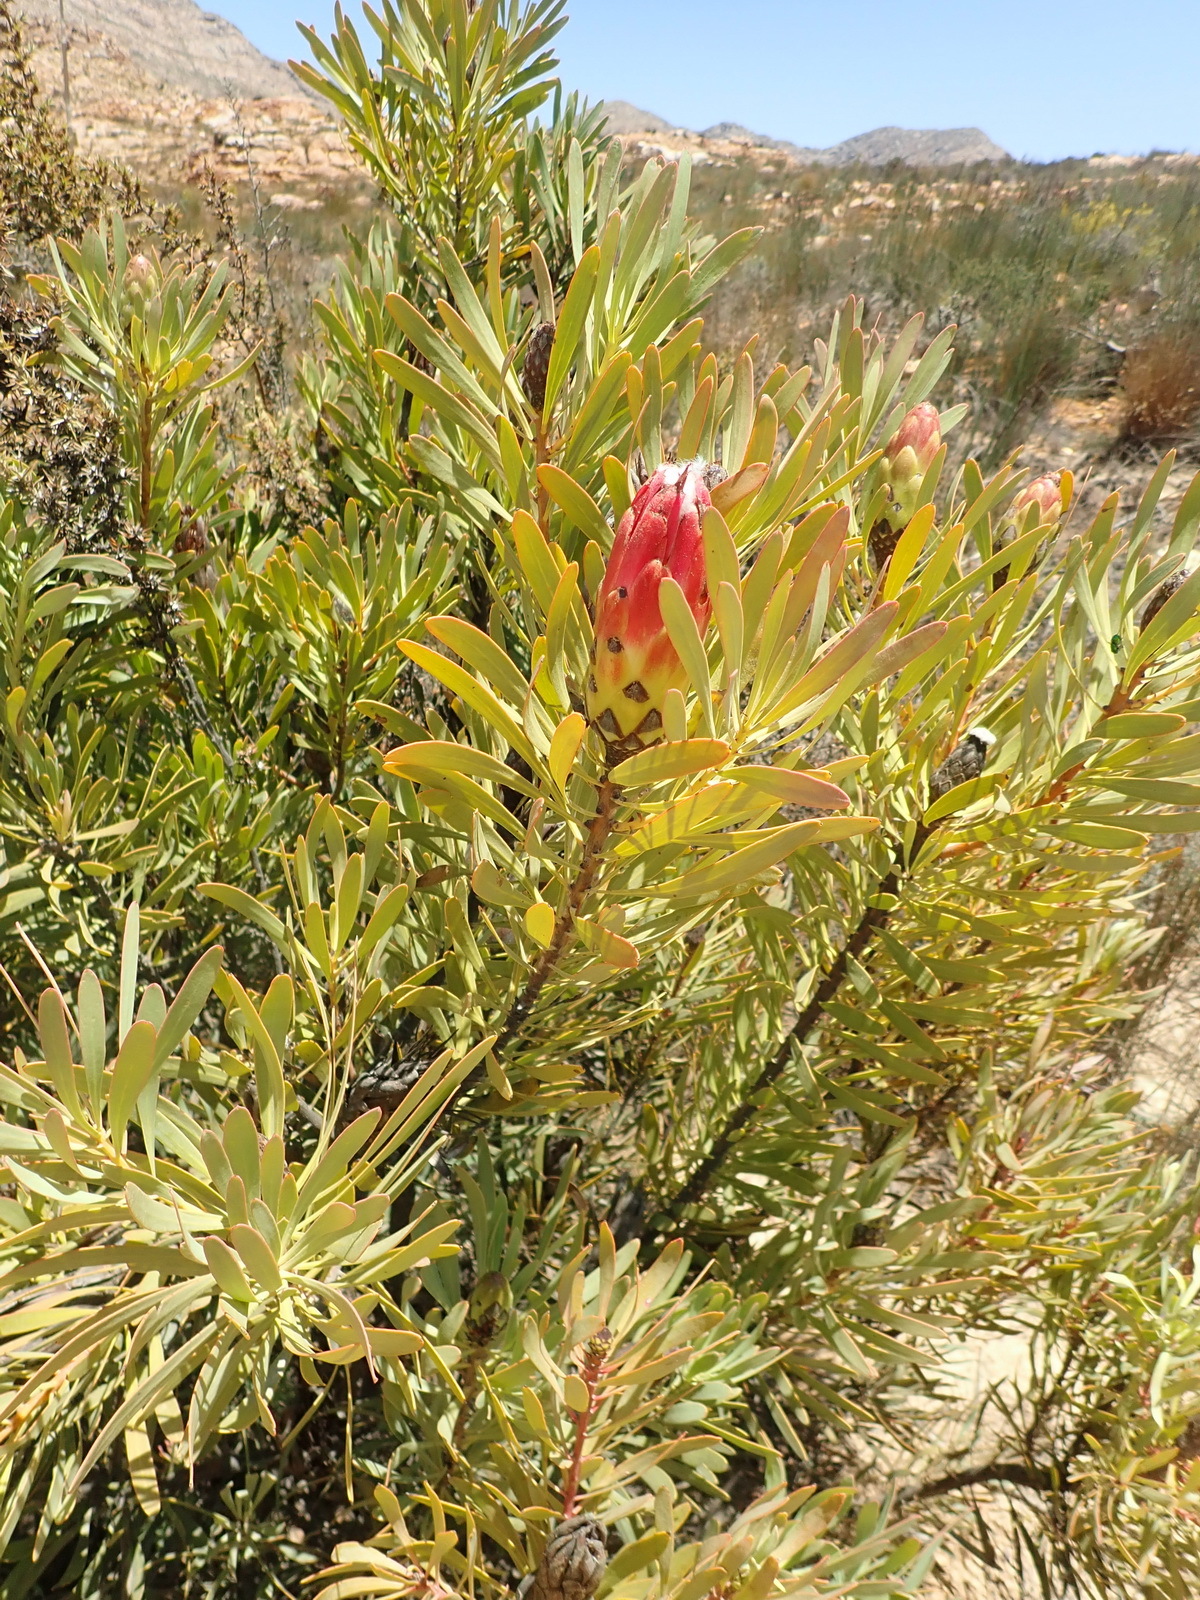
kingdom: Plantae
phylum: Tracheophyta
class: Magnoliopsida
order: Proteales
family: Proteaceae
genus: Protea
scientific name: Protea repens
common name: Sugarbush
